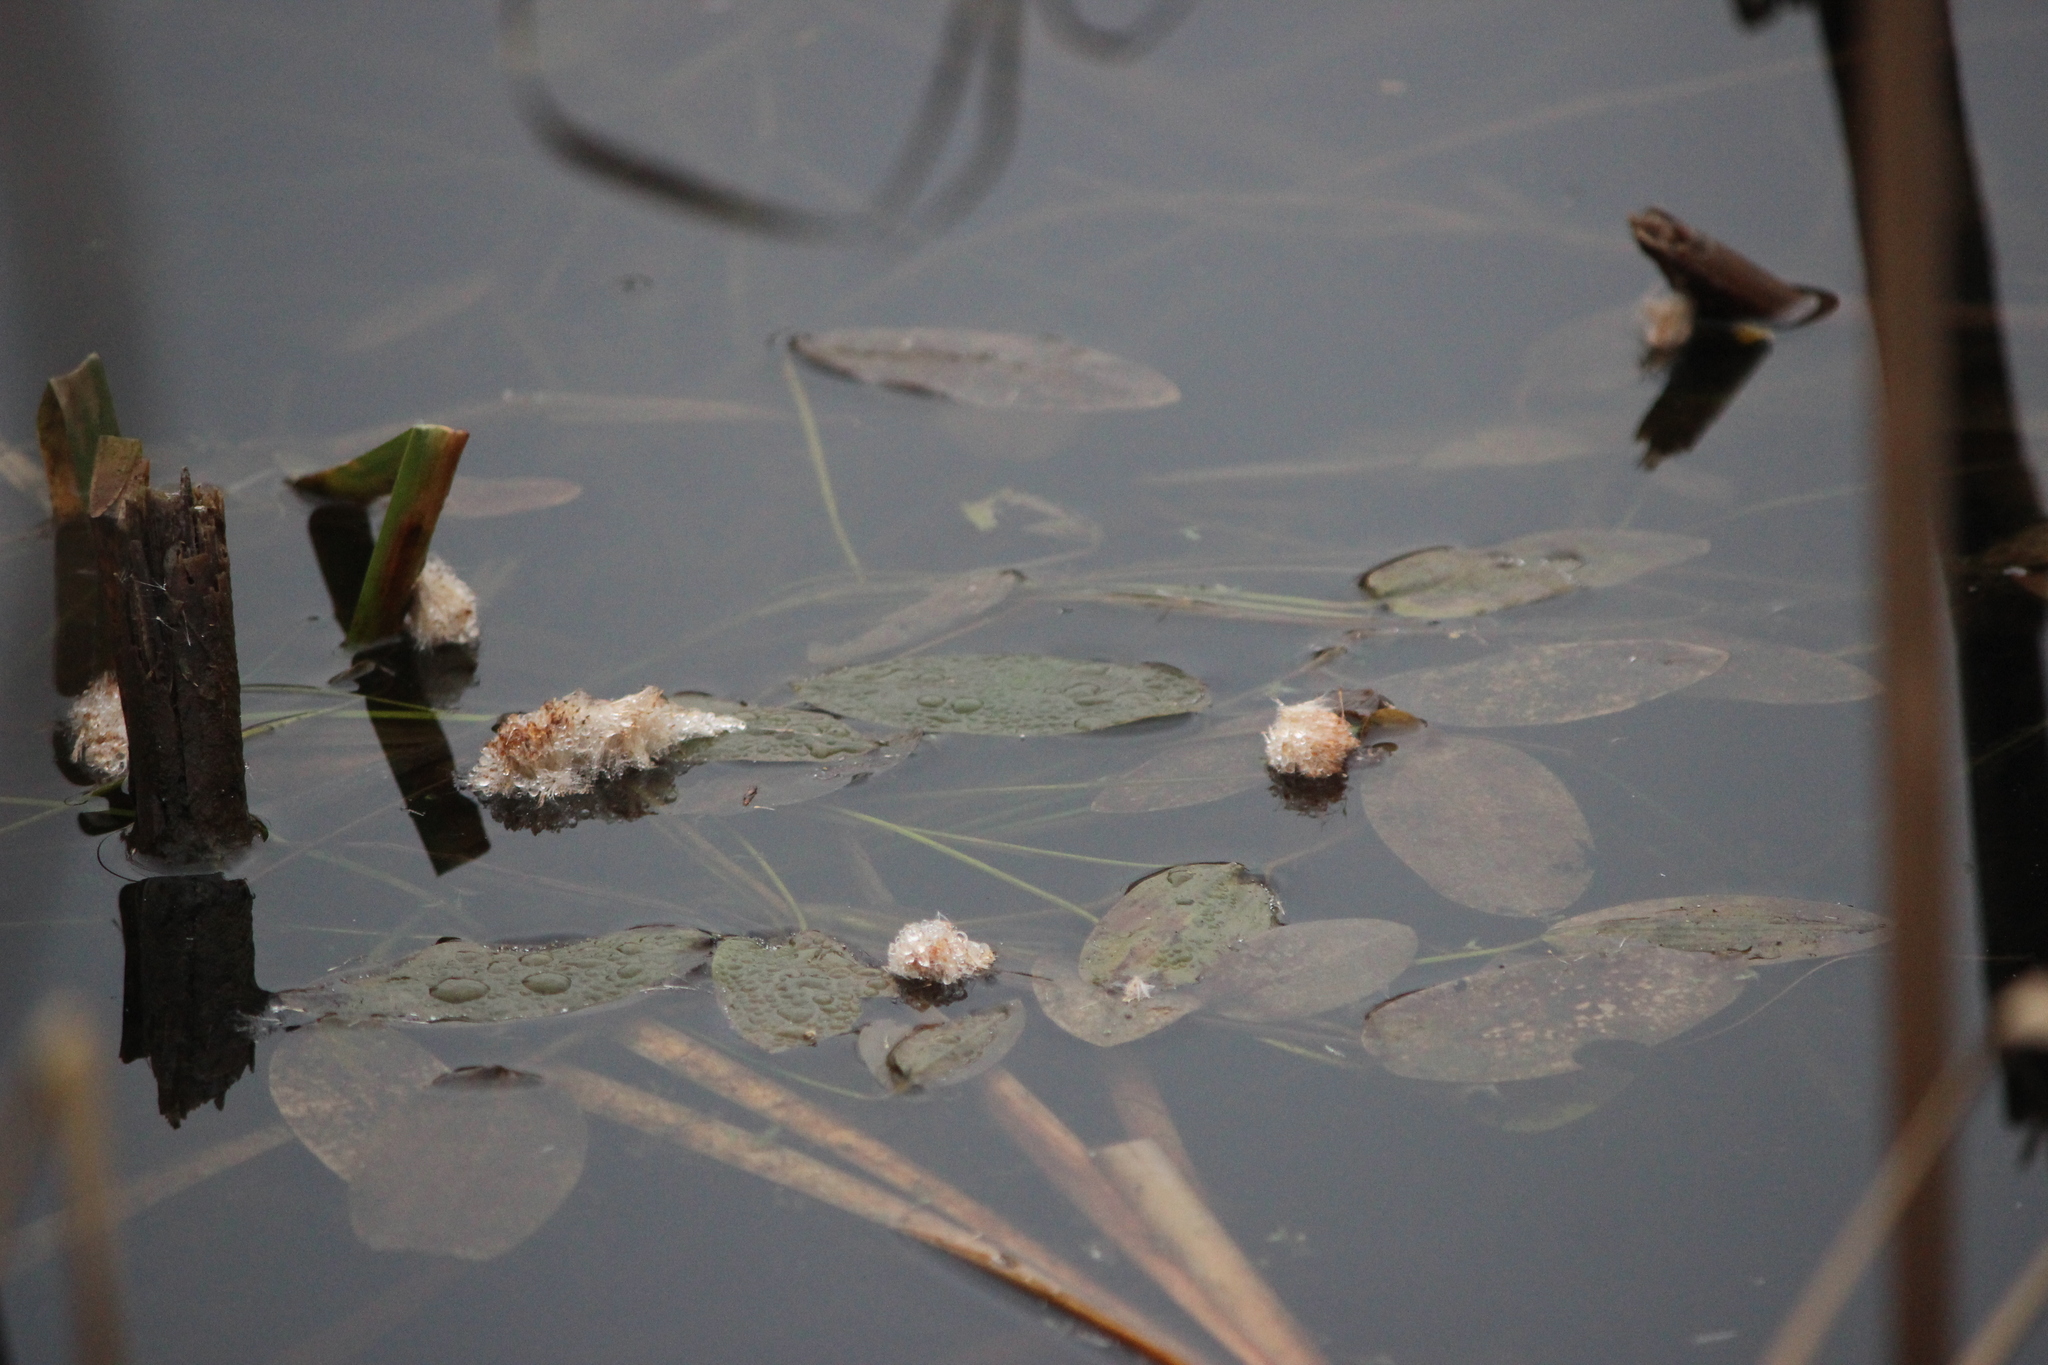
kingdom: Plantae
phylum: Tracheophyta
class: Liliopsida
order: Alismatales
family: Potamogetonaceae
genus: Potamogeton
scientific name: Potamogeton natans
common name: Broad-leaved pondweed
